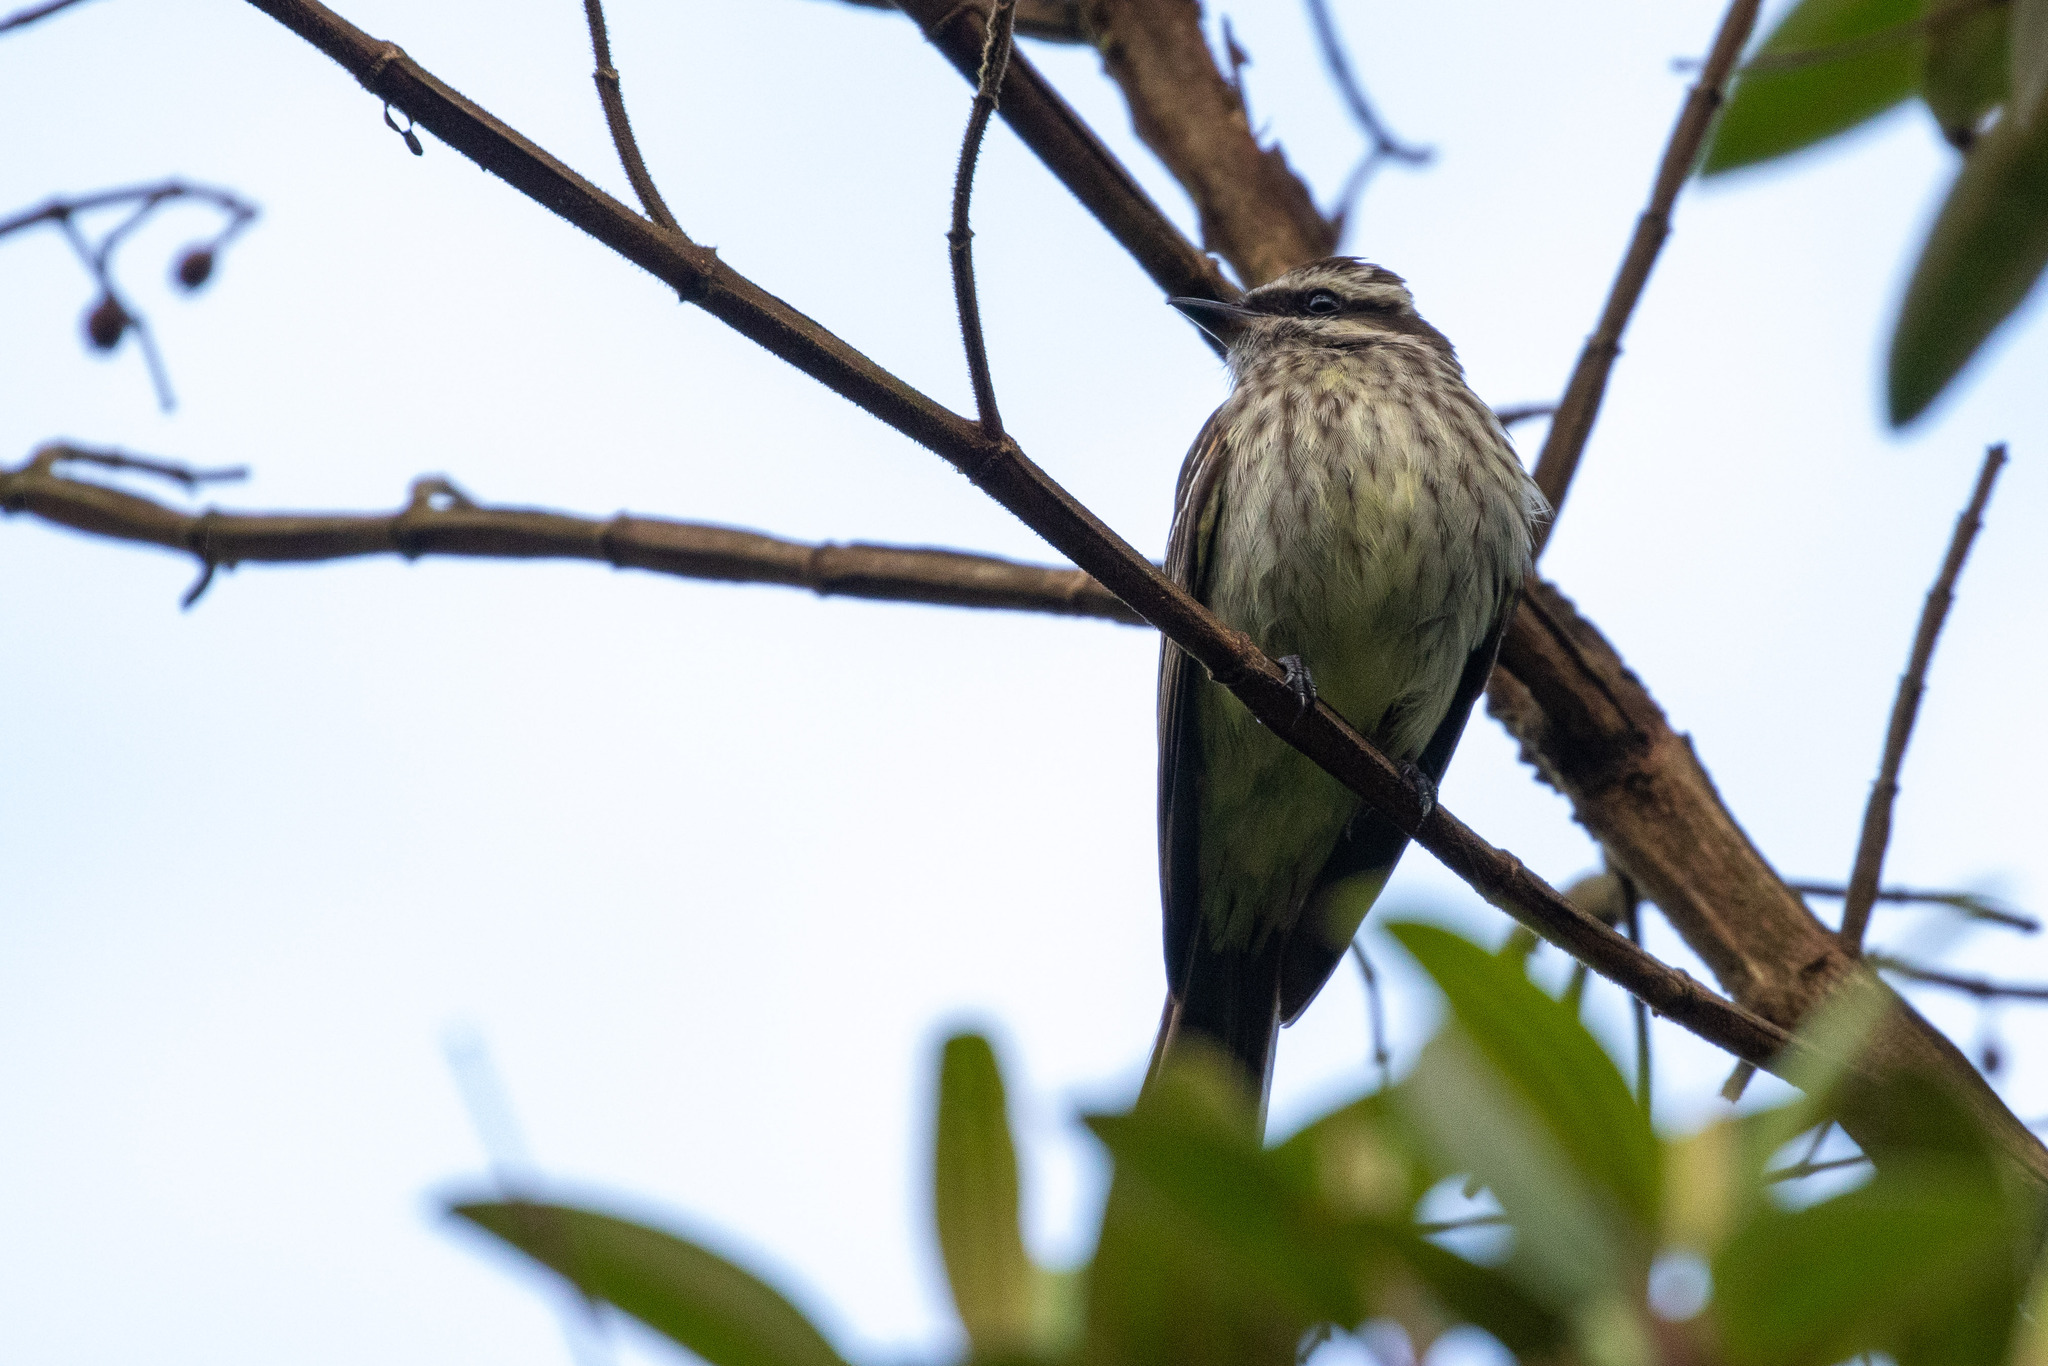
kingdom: Animalia
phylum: Chordata
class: Aves
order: Passeriformes
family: Tyrannidae
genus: Empidonomus
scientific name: Empidonomus varius
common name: Variegated flycatcher
